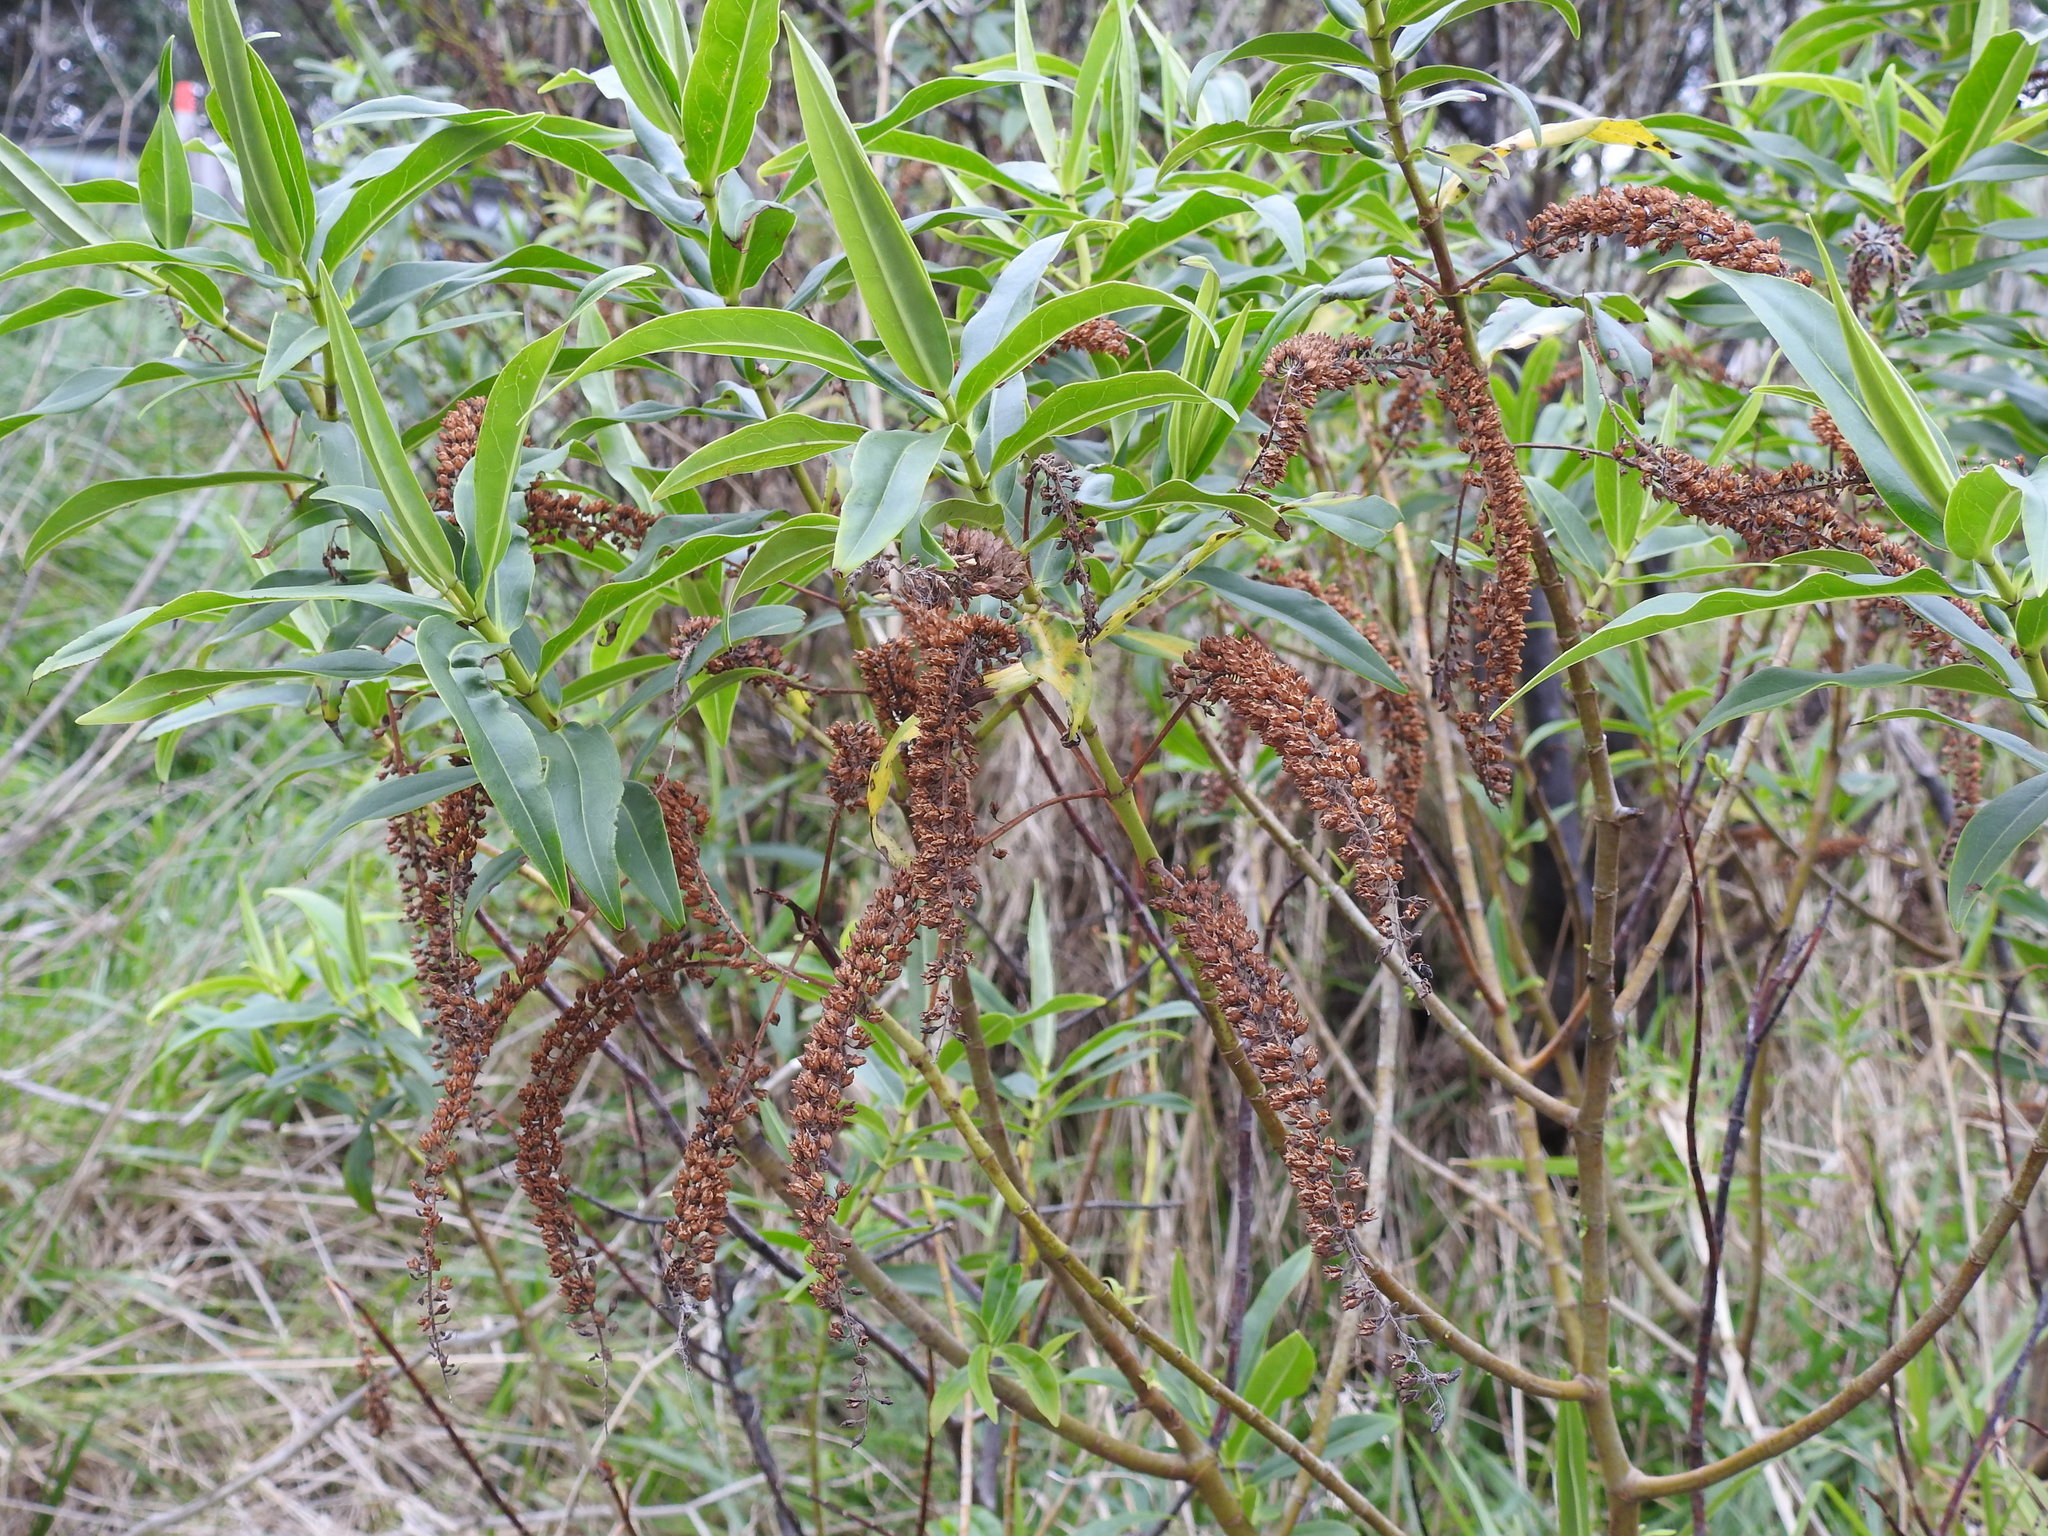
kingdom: Plantae
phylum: Tracheophyta
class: Magnoliopsida
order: Lamiales
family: Plantaginaceae
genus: Veronica
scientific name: Veronica stricta
